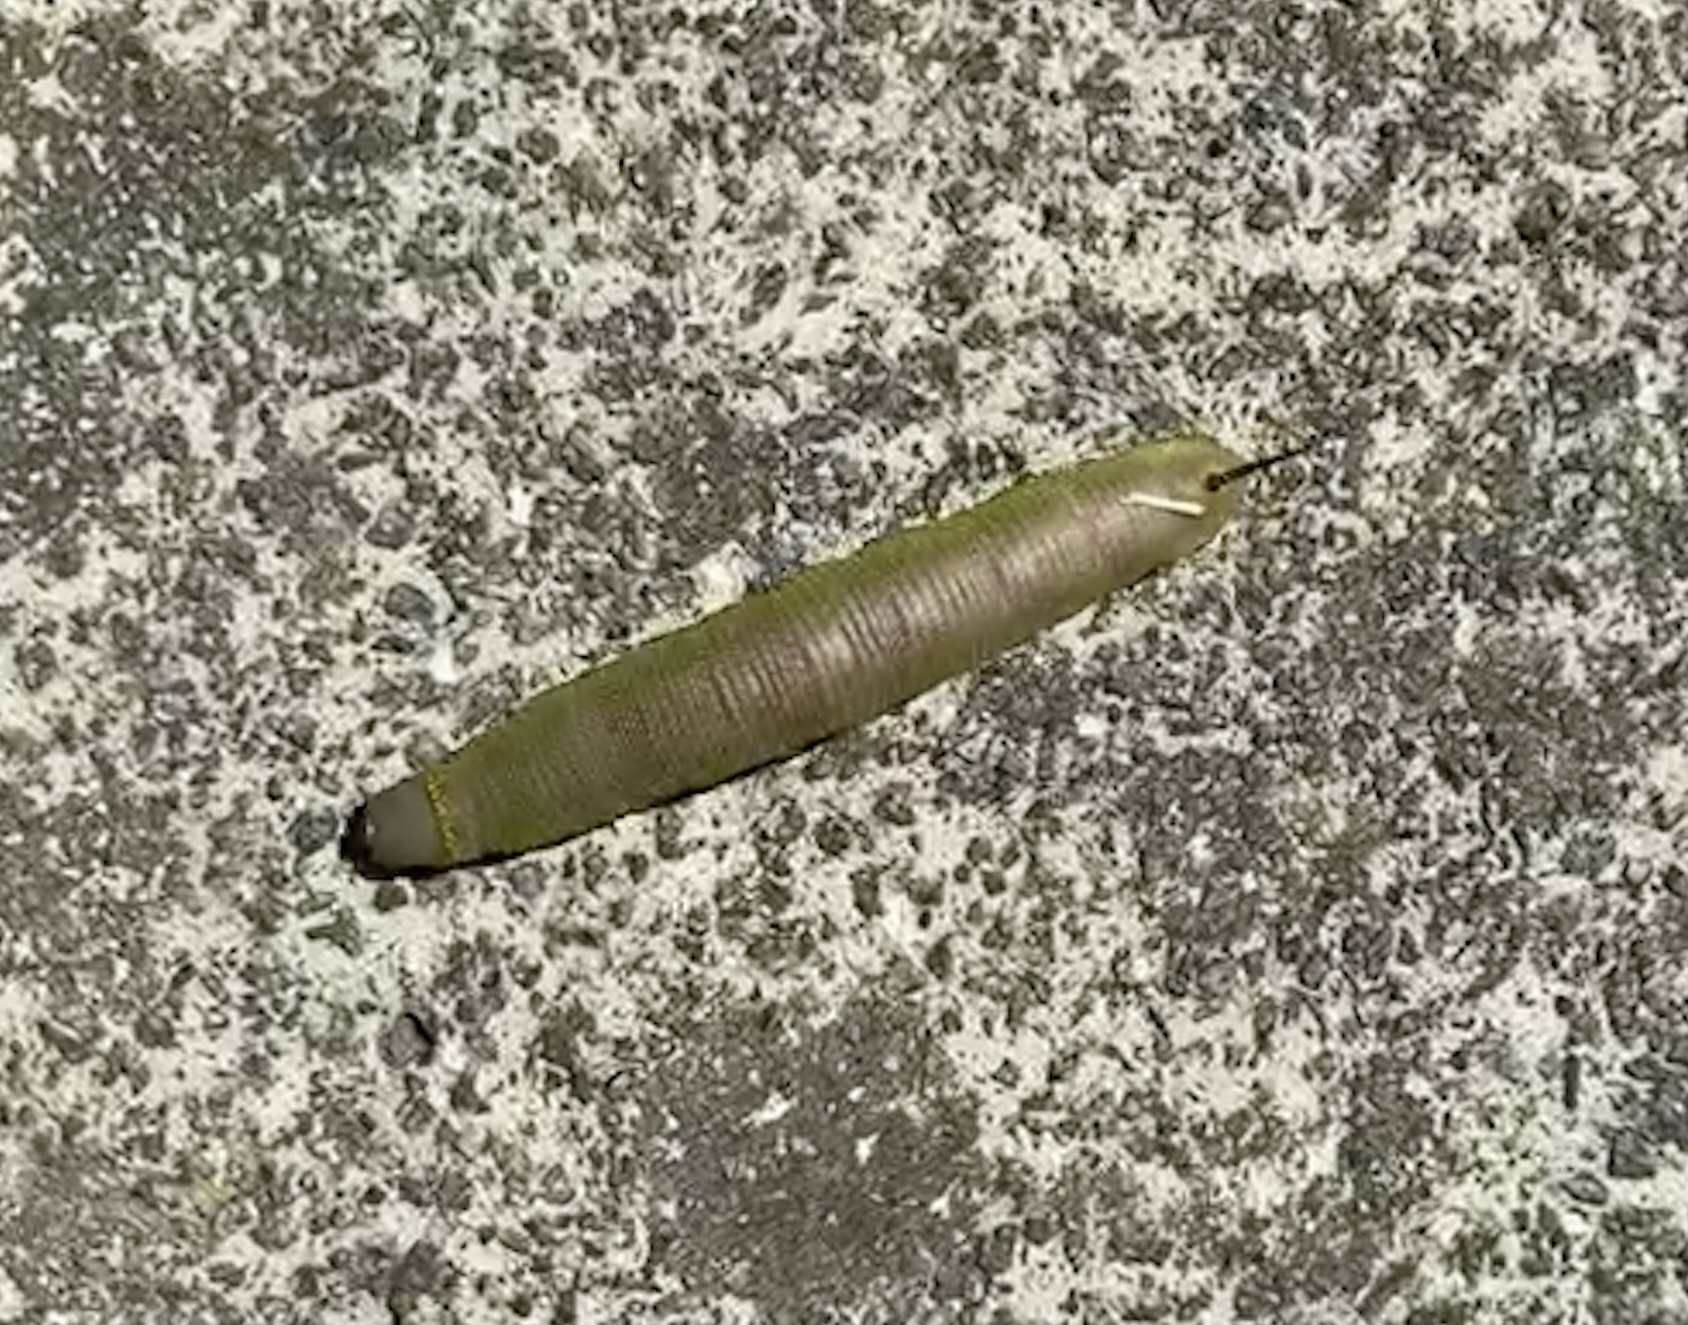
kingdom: Animalia
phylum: Arthropoda
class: Insecta
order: Lepidoptera
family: Sphingidae
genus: Hemaris
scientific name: Hemaris diffinis
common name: Bumblebee moth
